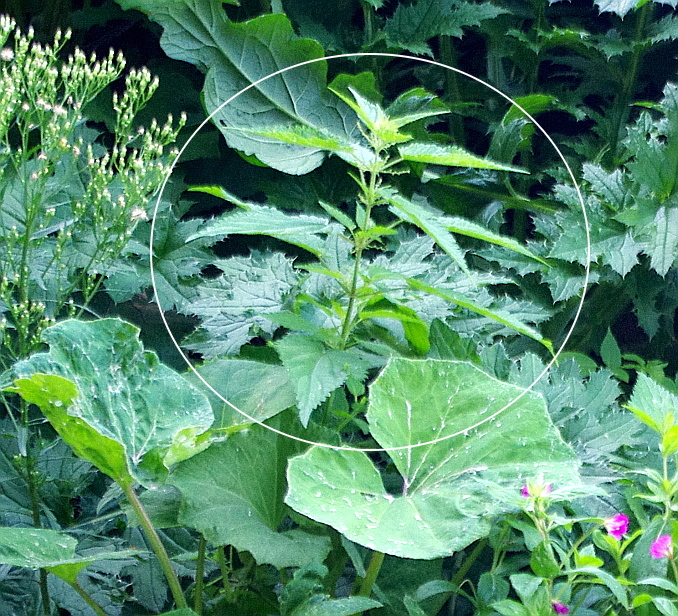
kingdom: Plantae
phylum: Tracheophyta
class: Magnoliopsida
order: Rosales
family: Urticaceae
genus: Urtica
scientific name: Urtica dioica
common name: Common nettle
